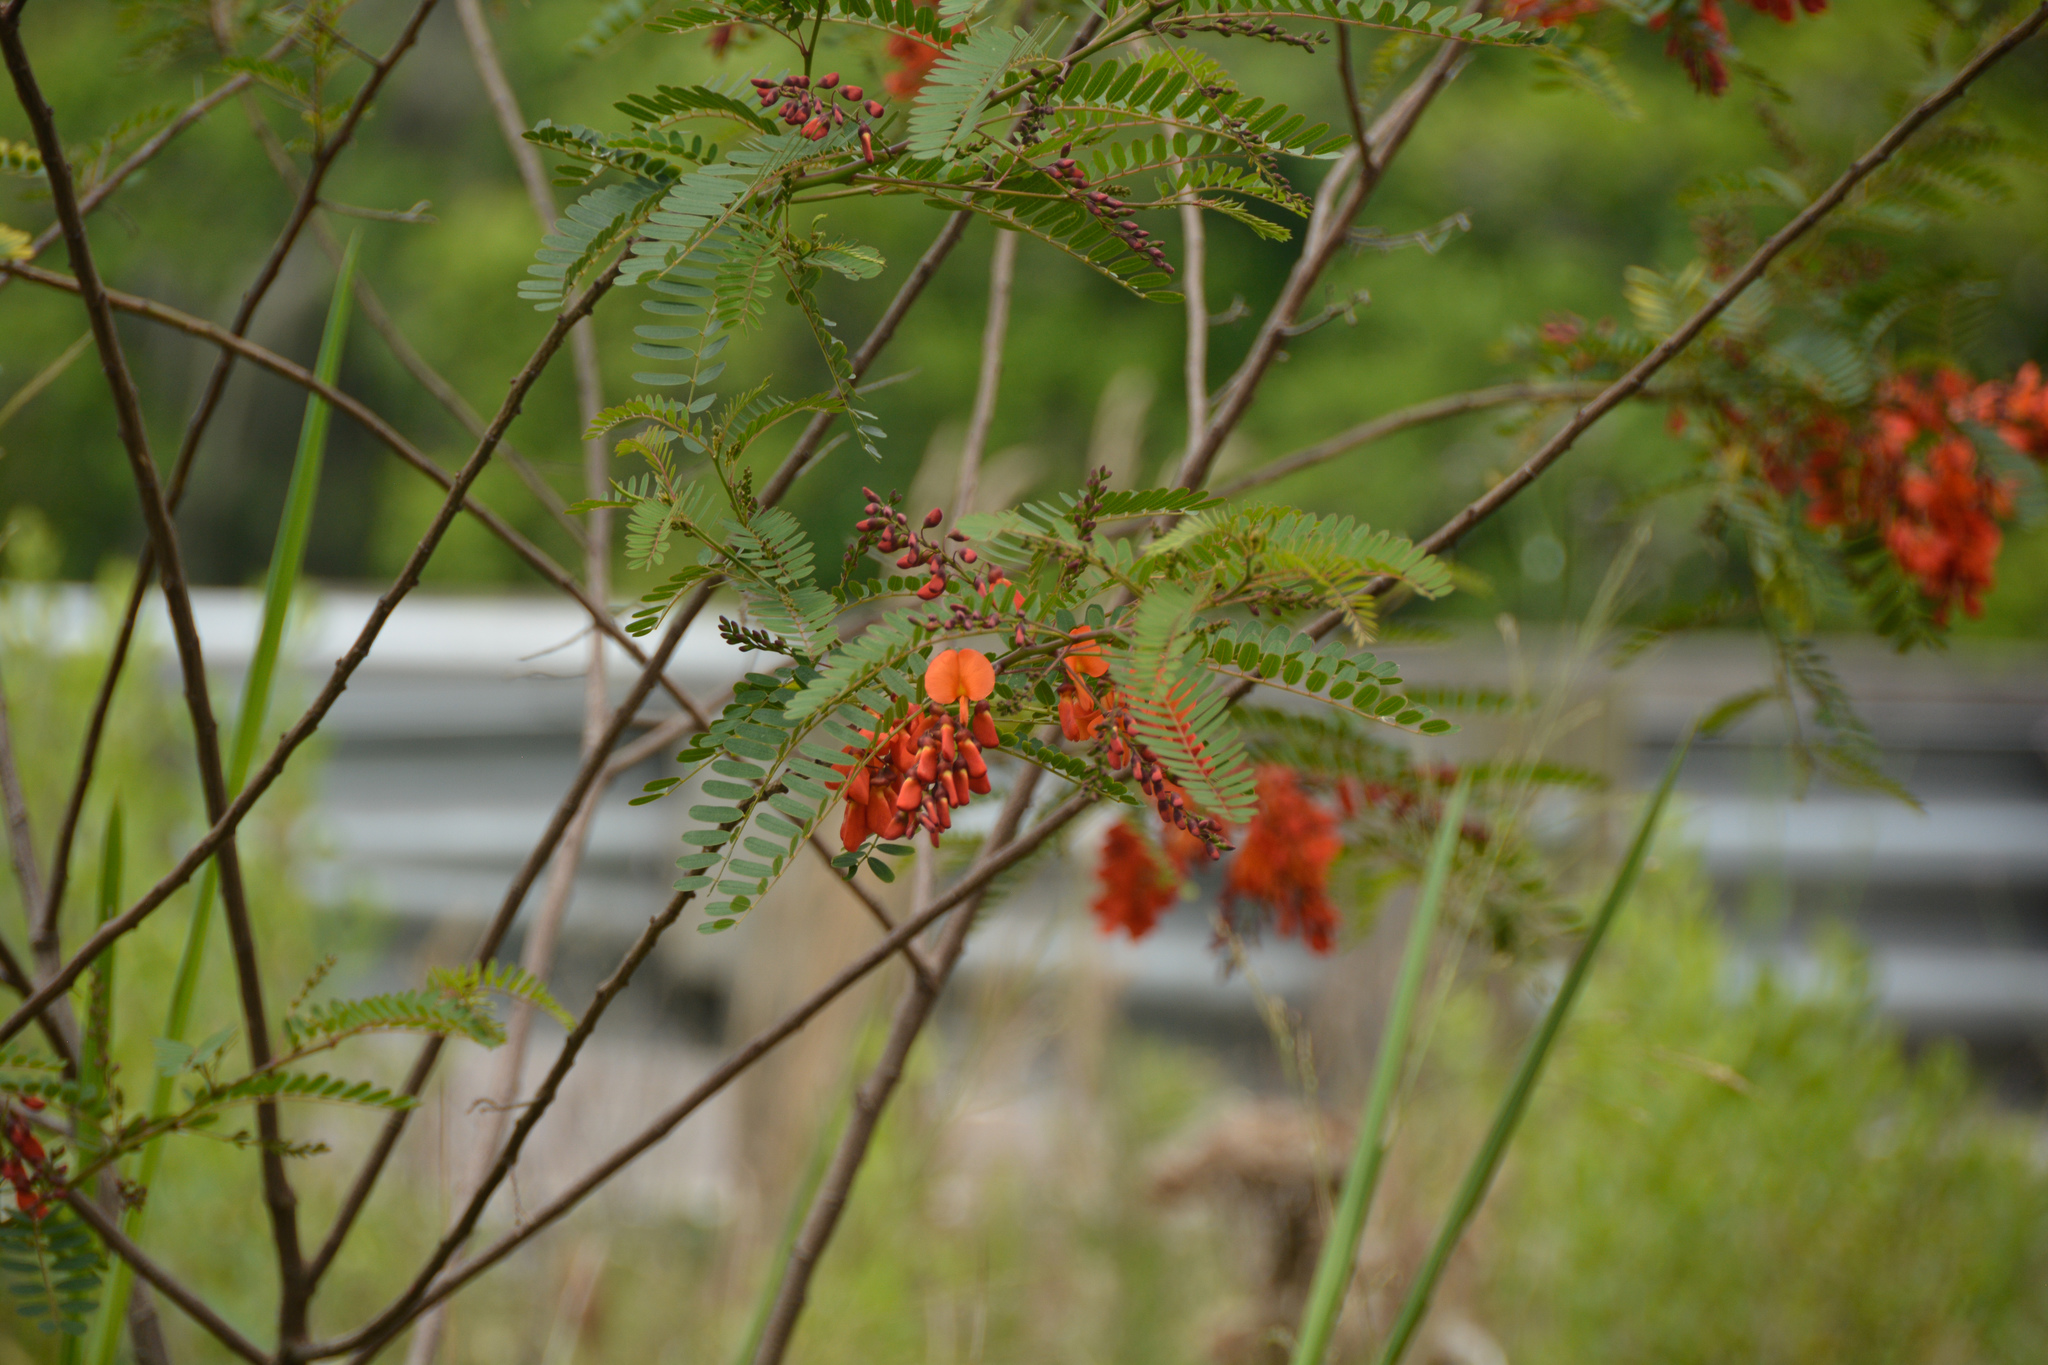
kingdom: Plantae
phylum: Tracheophyta
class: Magnoliopsida
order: Fabales
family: Fabaceae
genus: Sesbania
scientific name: Sesbania punicea
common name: Rattlebox
